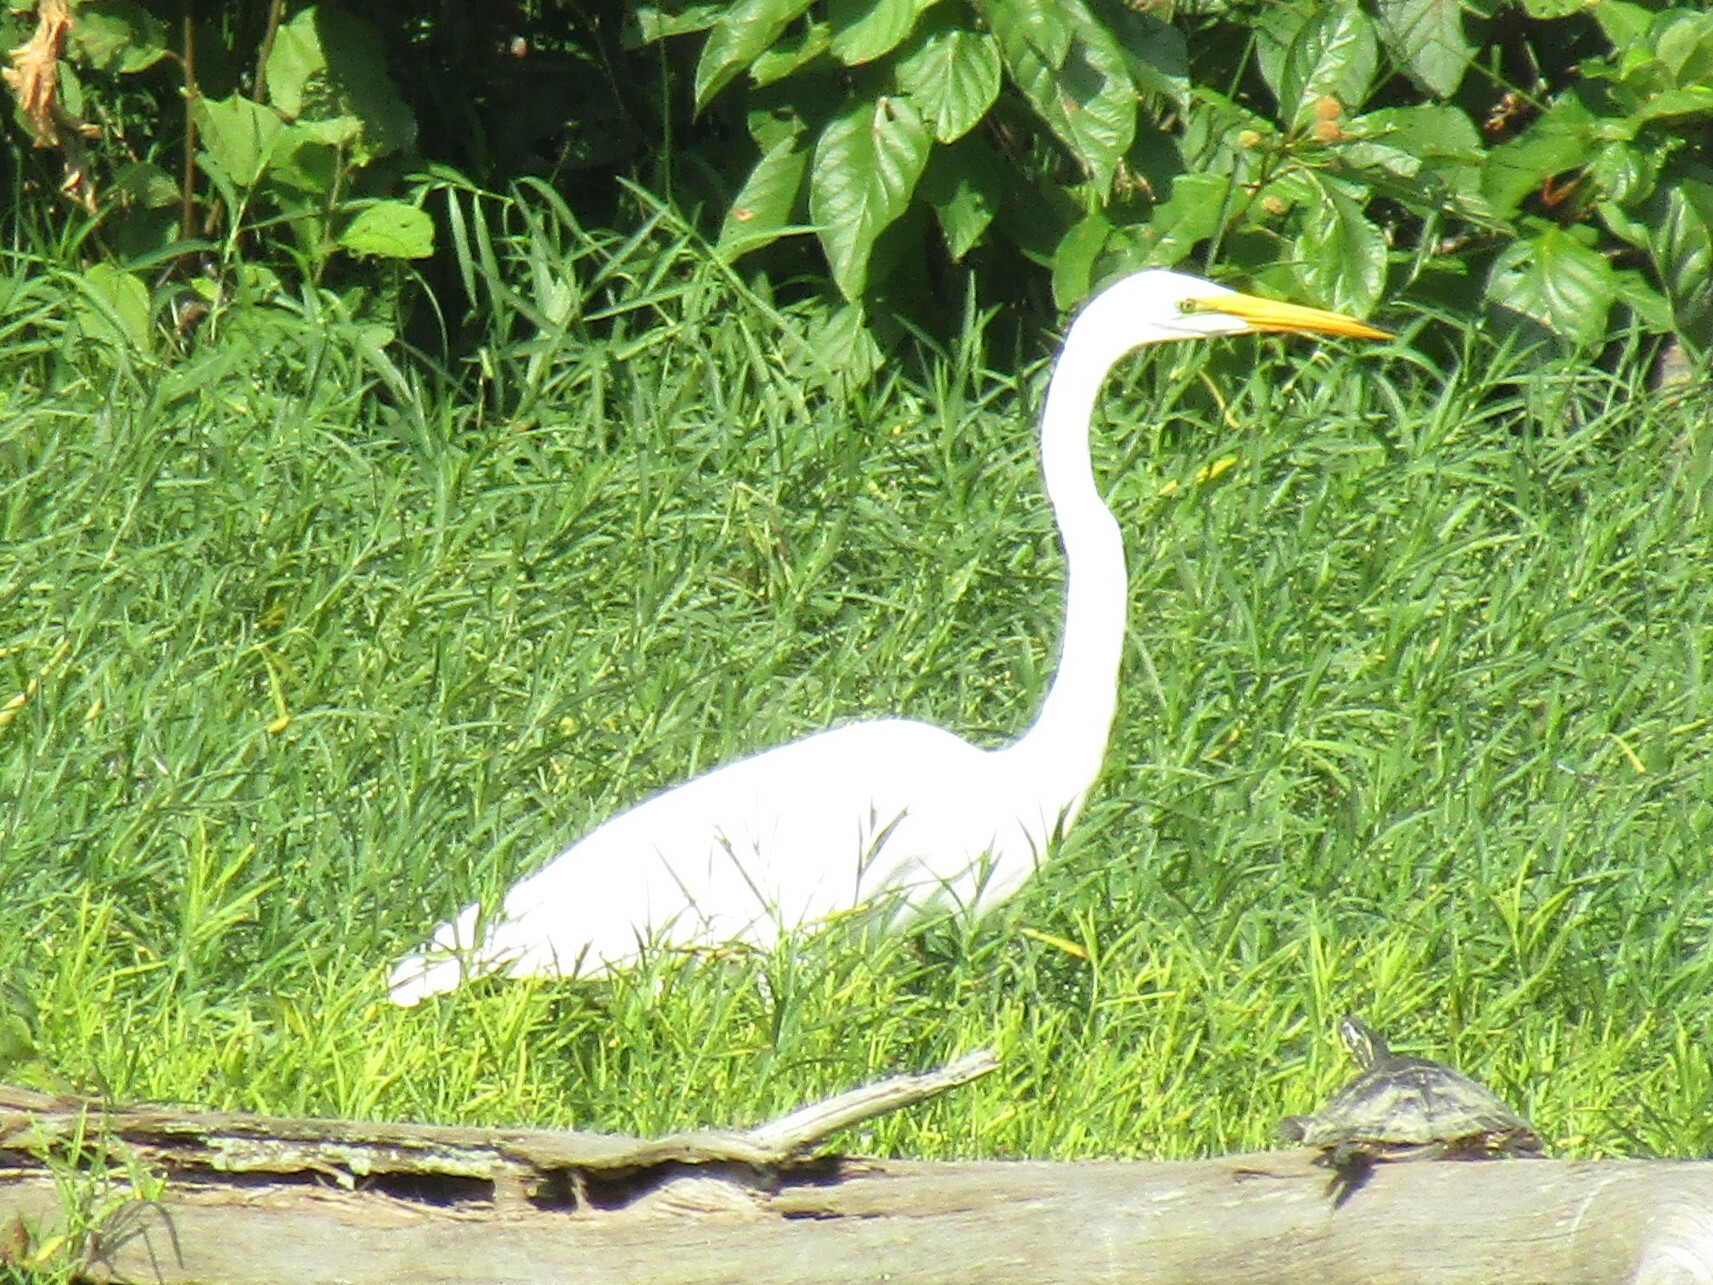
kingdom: Animalia
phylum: Chordata
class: Aves
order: Pelecaniformes
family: Ardeidae
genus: Ardea
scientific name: Ardea alba
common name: Great egret
